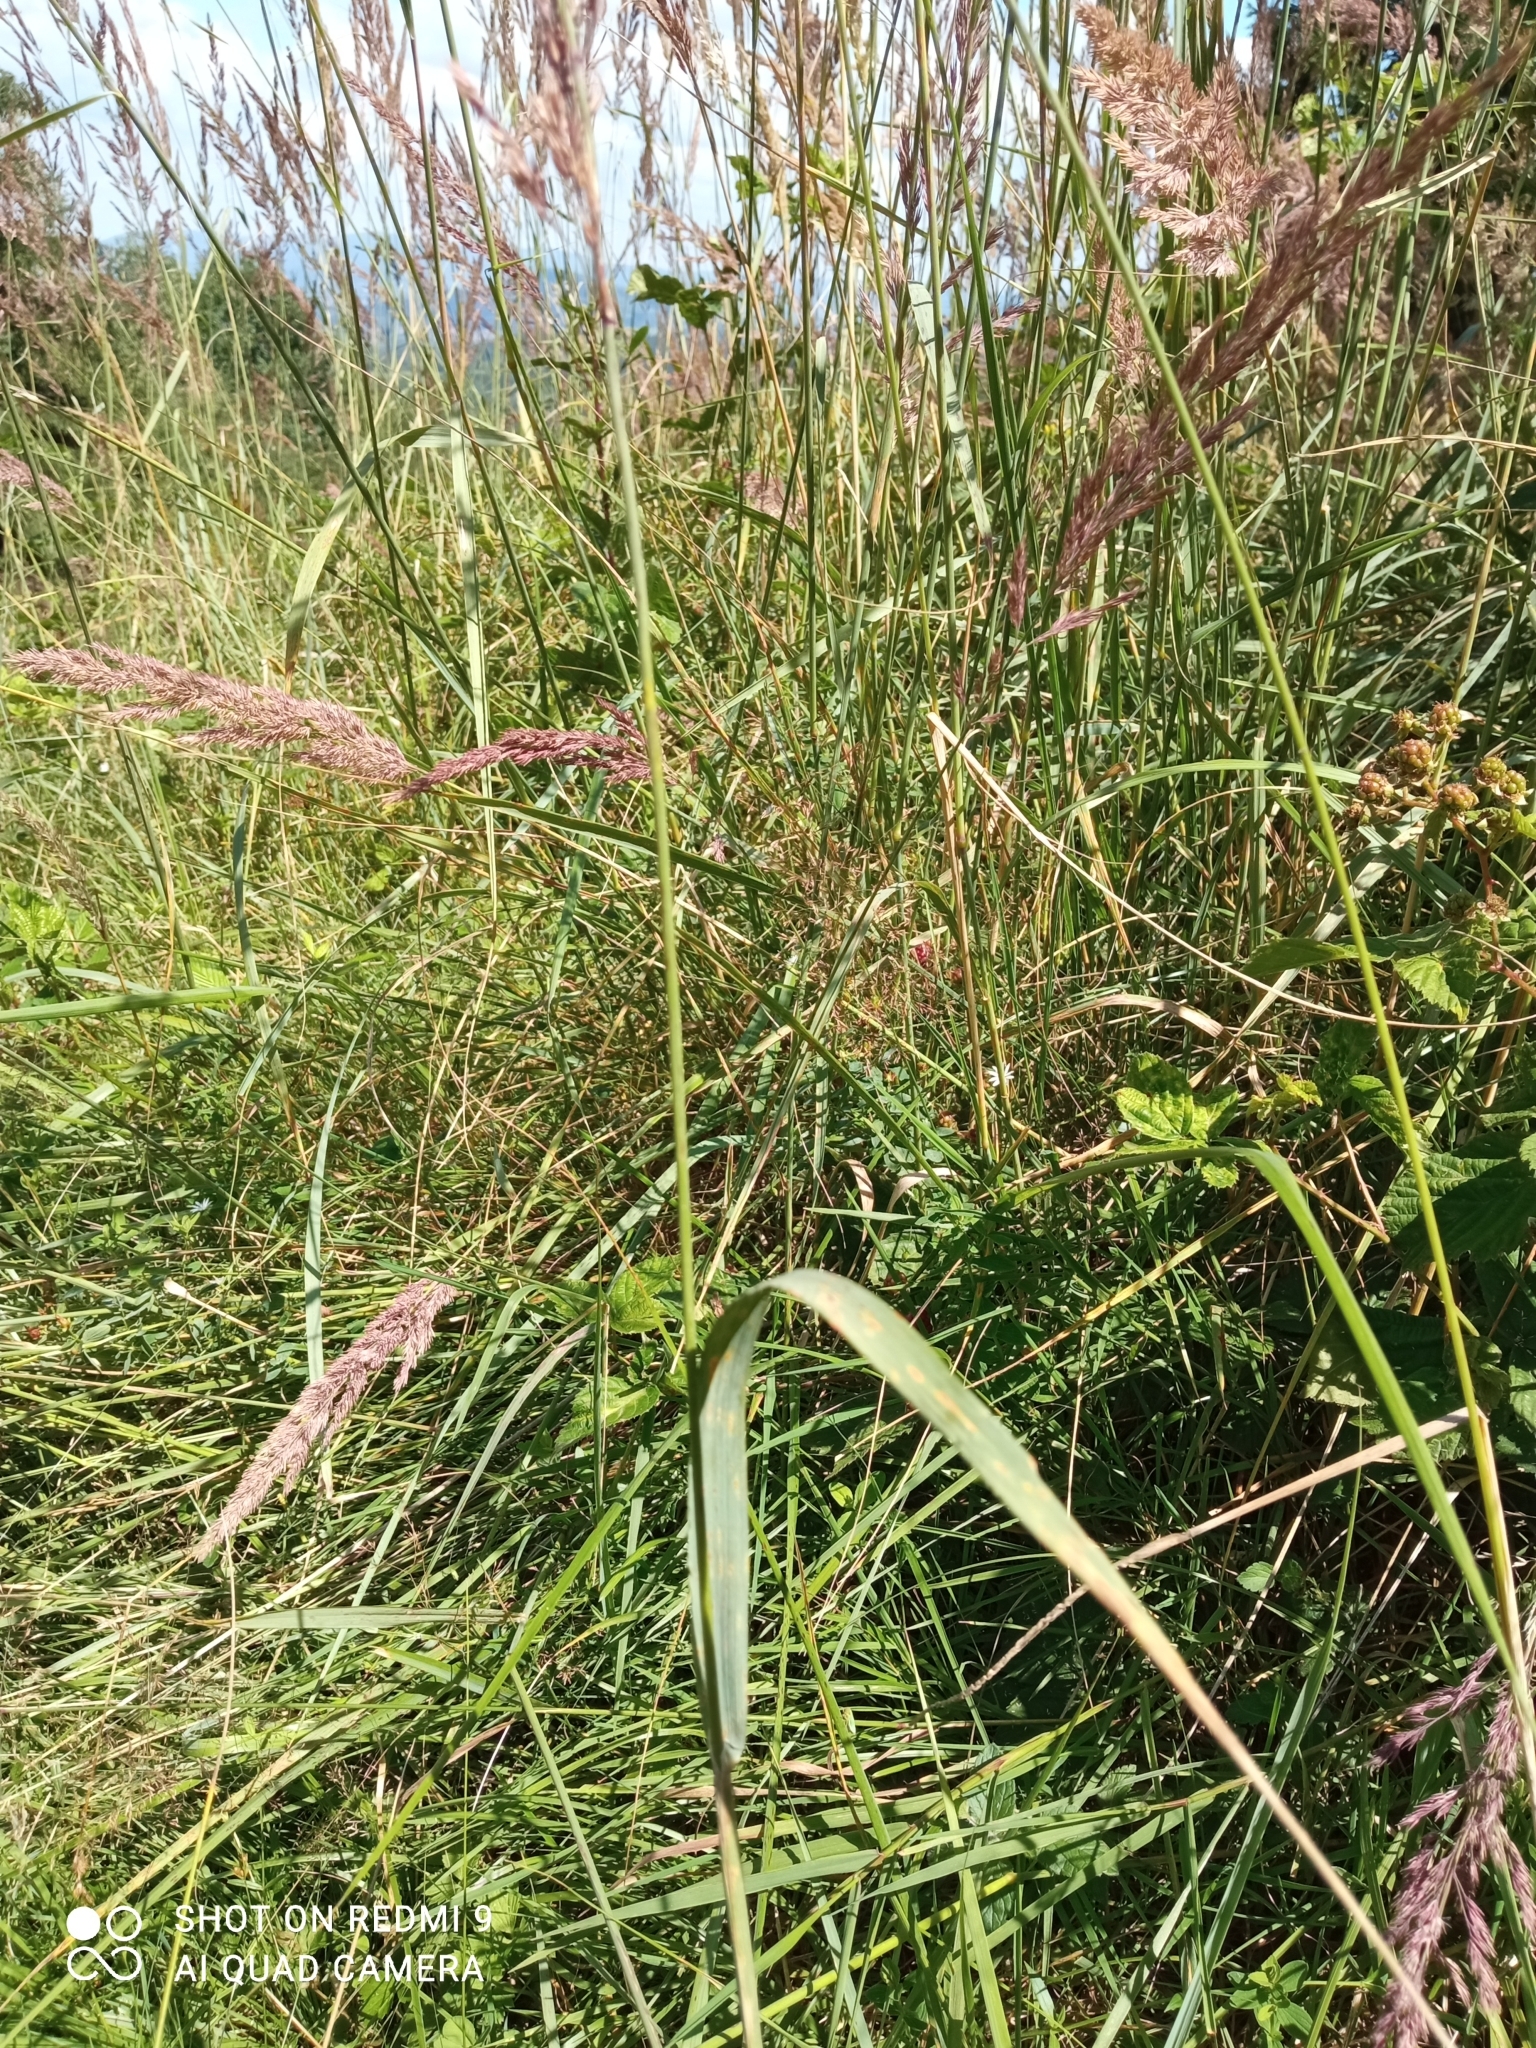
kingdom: Plantae
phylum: Tracheophyta
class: Liliopsida
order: Poales
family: Poaceae
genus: Calamagrostis
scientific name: Calamagrostis epigejos
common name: Wood small-reed
